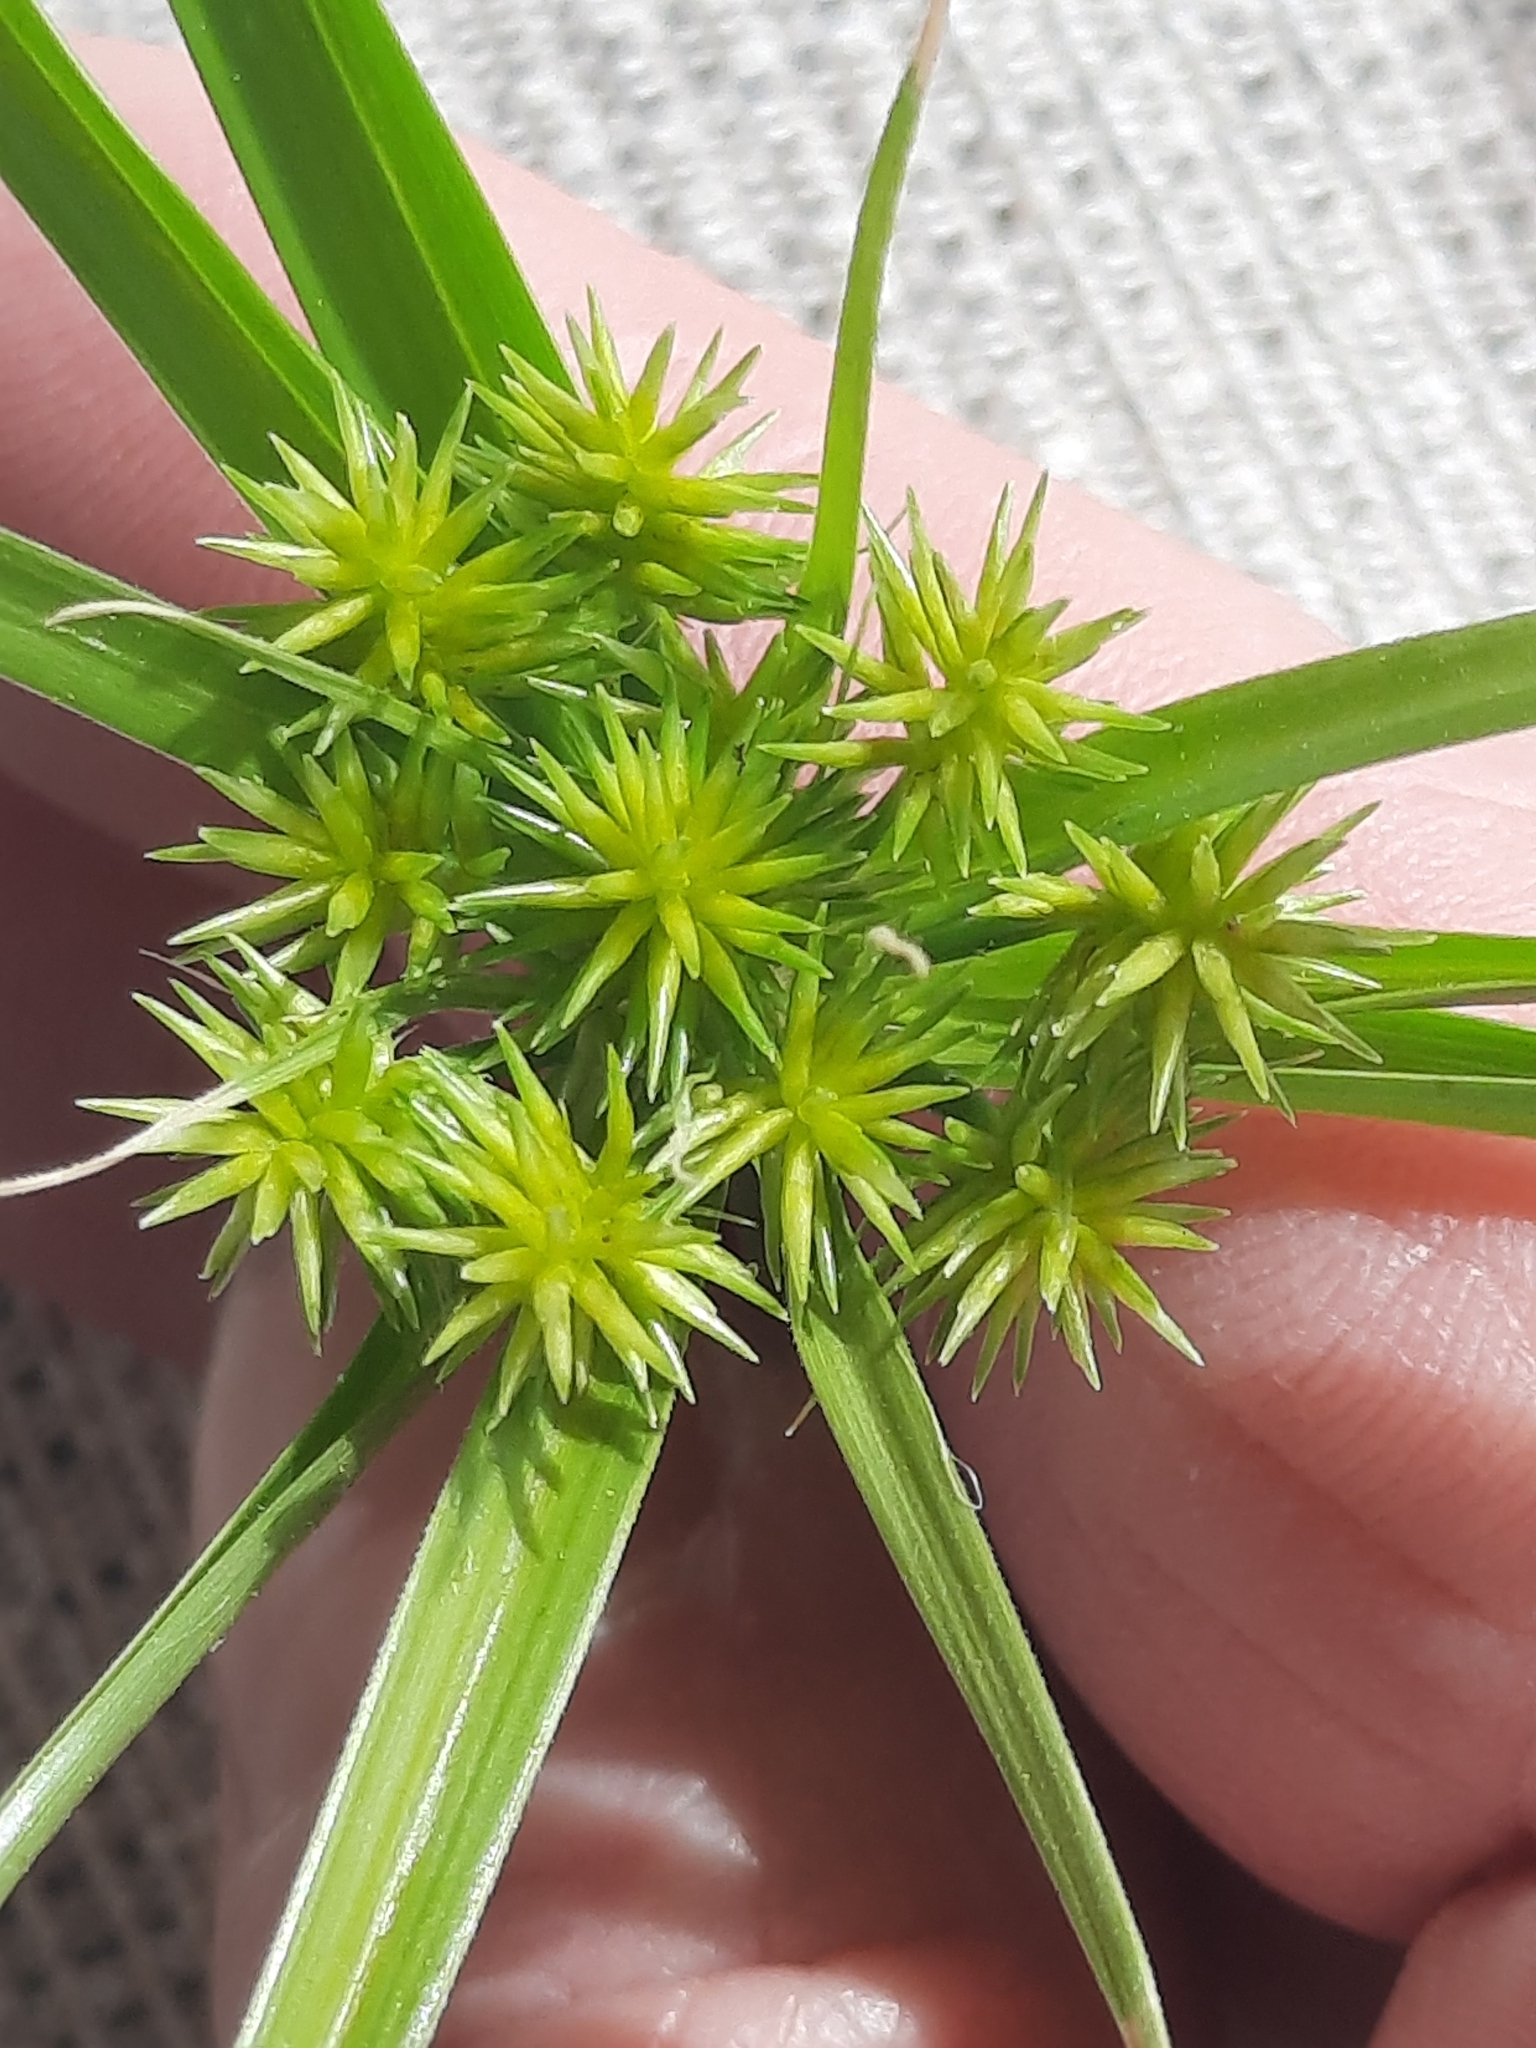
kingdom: Plantae
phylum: Tracheophyta
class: Liliopsida
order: Poales
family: Cyperaceae
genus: Cyperus
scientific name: Cyperus croceus
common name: Baldwin's flatsedge
